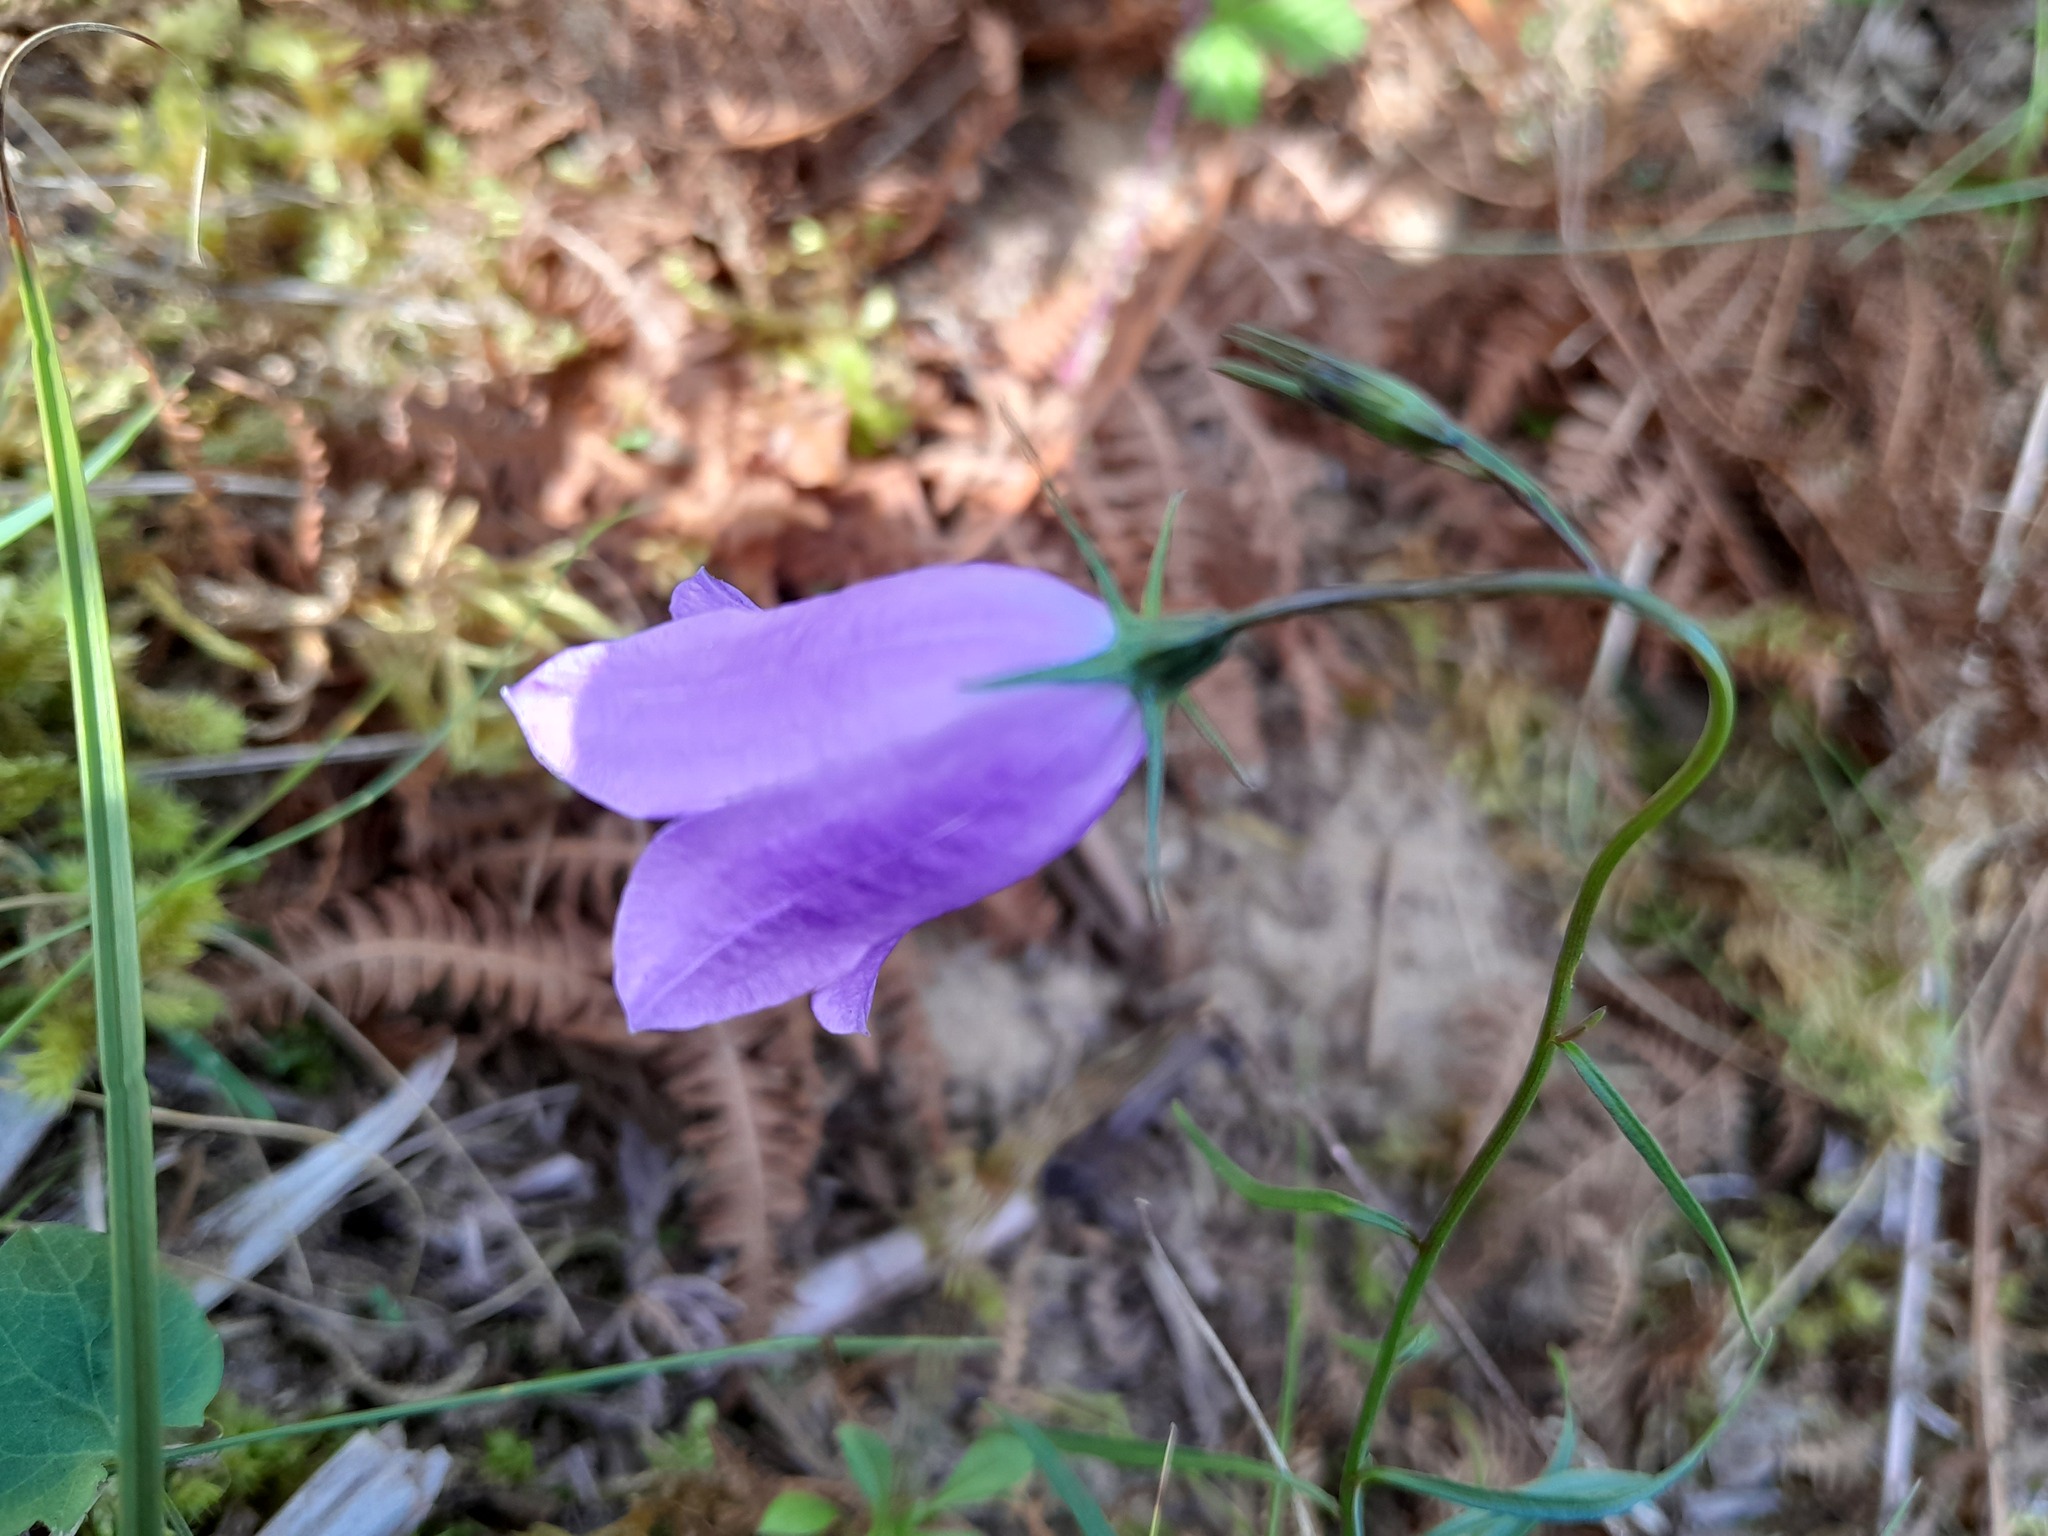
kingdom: Plantae
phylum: Tracheophyta
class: Magnoliopsida
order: Asterales
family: Campanulaceae
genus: Campanula
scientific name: Campanula rotundifolia
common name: Harebell
